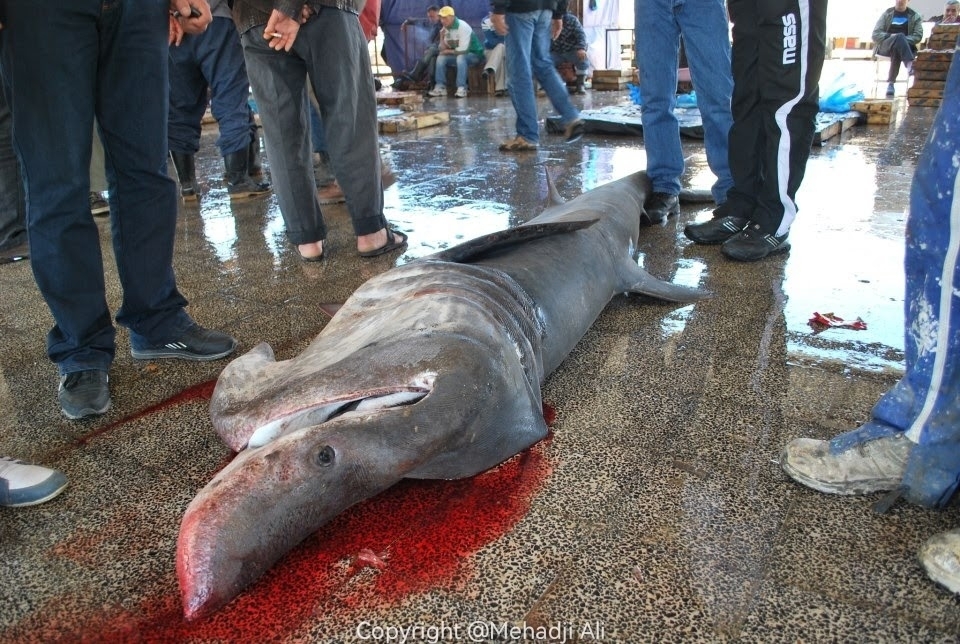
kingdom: Animalia
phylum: Chordata
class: Elasmobranchii
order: Lamniformes
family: Cetorhinidae
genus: Cetorhinus
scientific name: Cetorhinus maximus
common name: Basking shark
